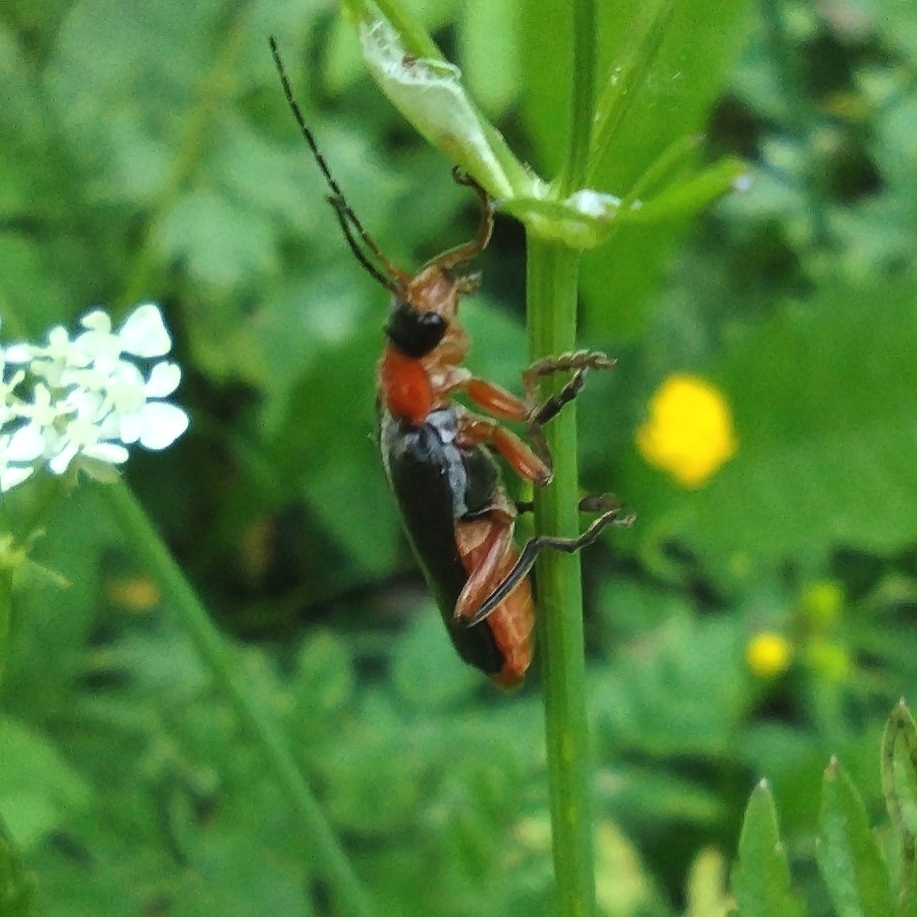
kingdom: Animalia
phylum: Arthropoda
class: Insecta
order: Coleoptera
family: Cantharidae
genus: Cantharis
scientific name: Cantharis pellucida
